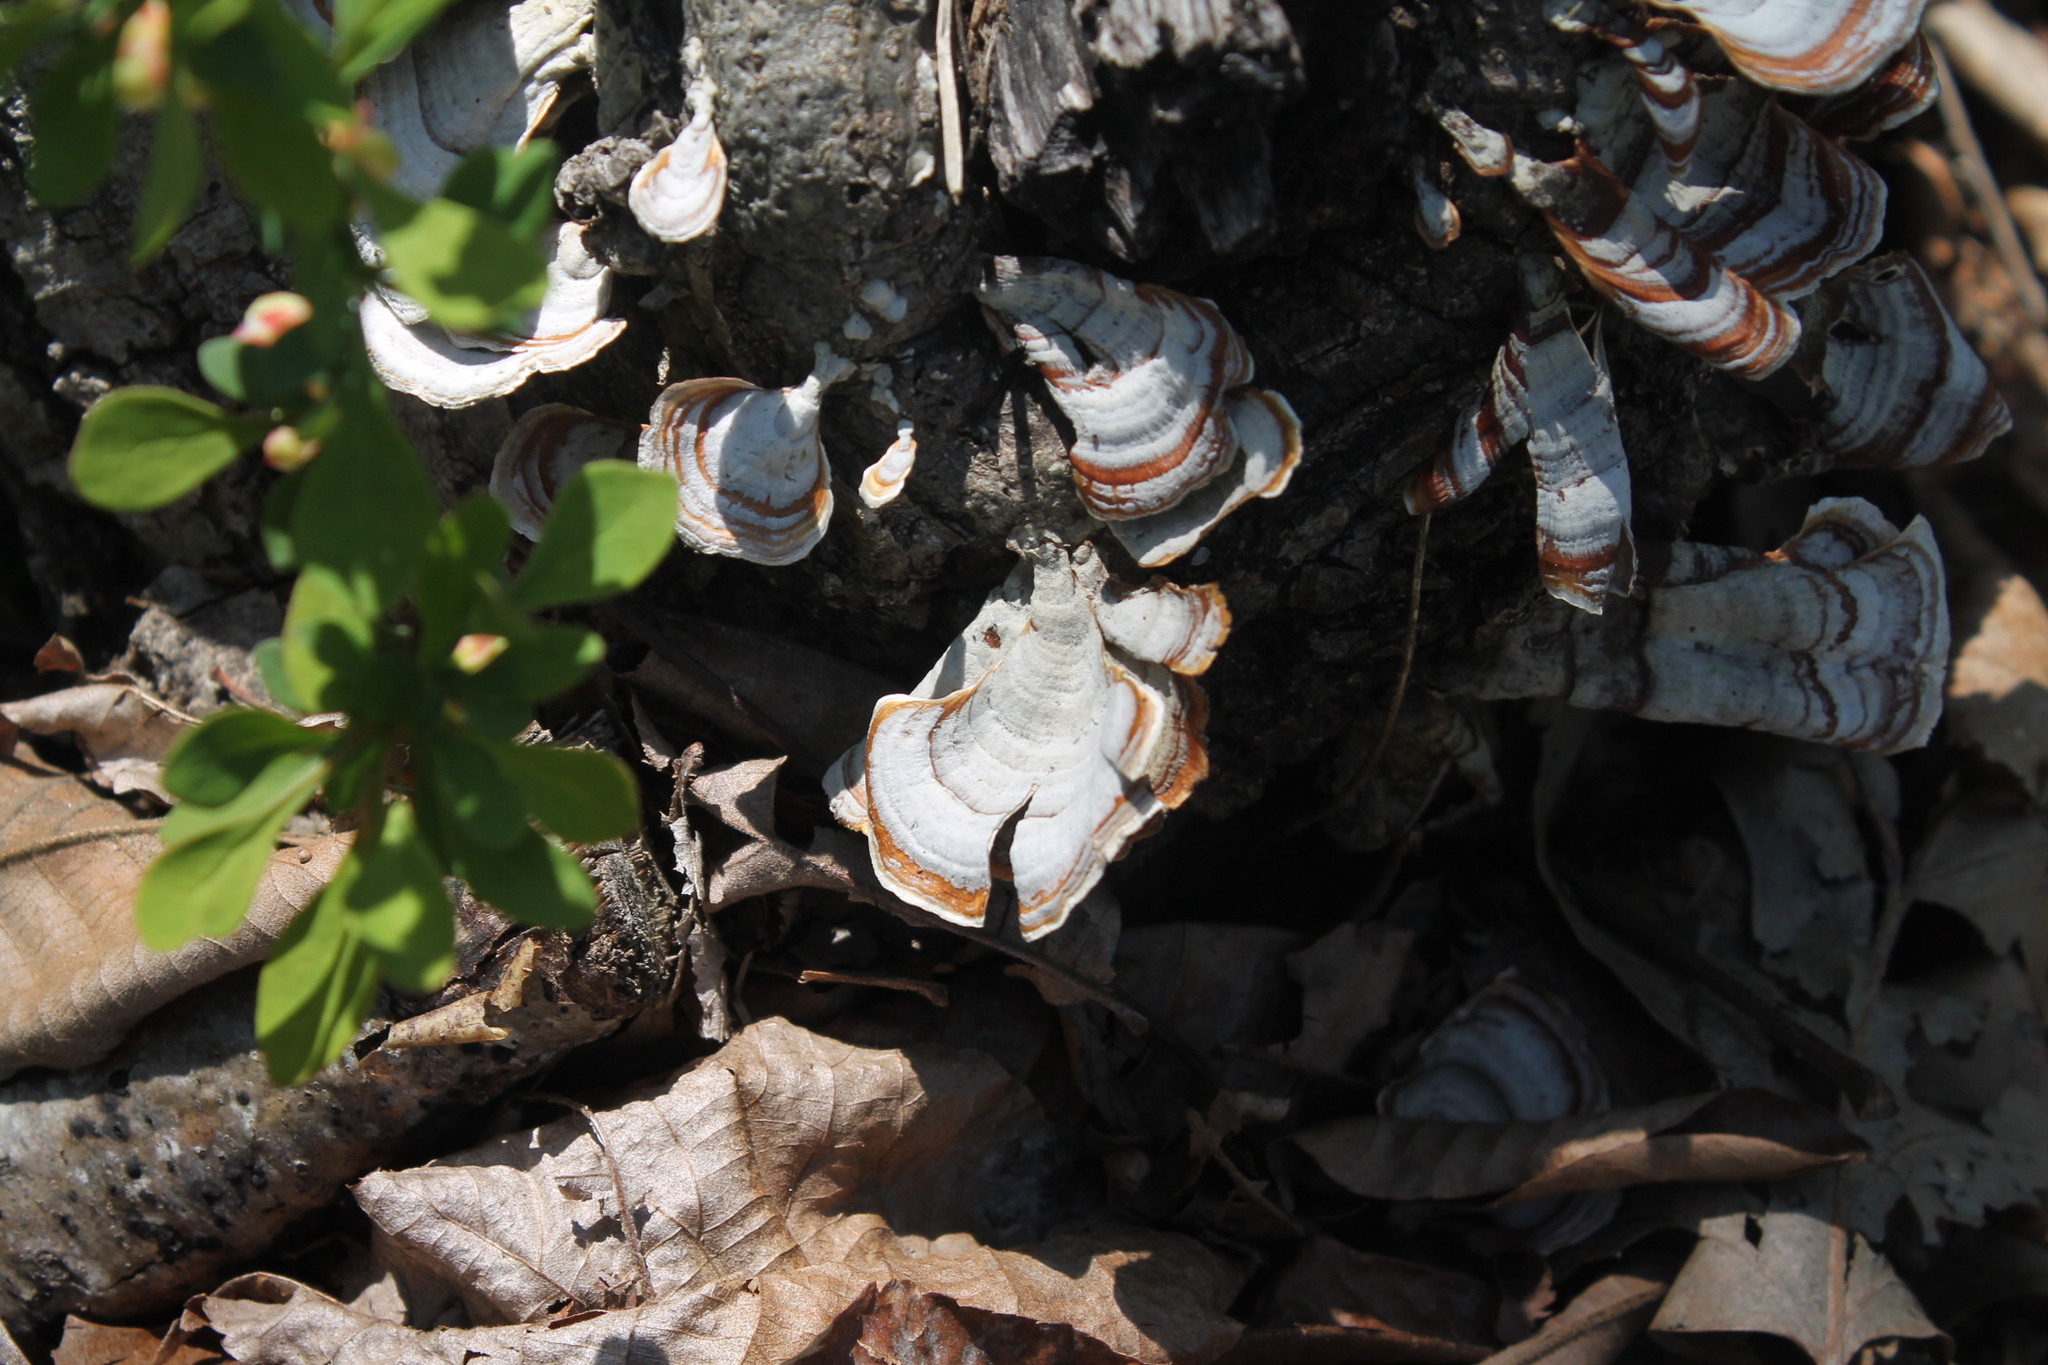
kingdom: Fungi
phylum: Basidiomycota
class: Agaricomycetes
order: Russulales
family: Stereaceae
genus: Stereum
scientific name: Stereum lobatum
